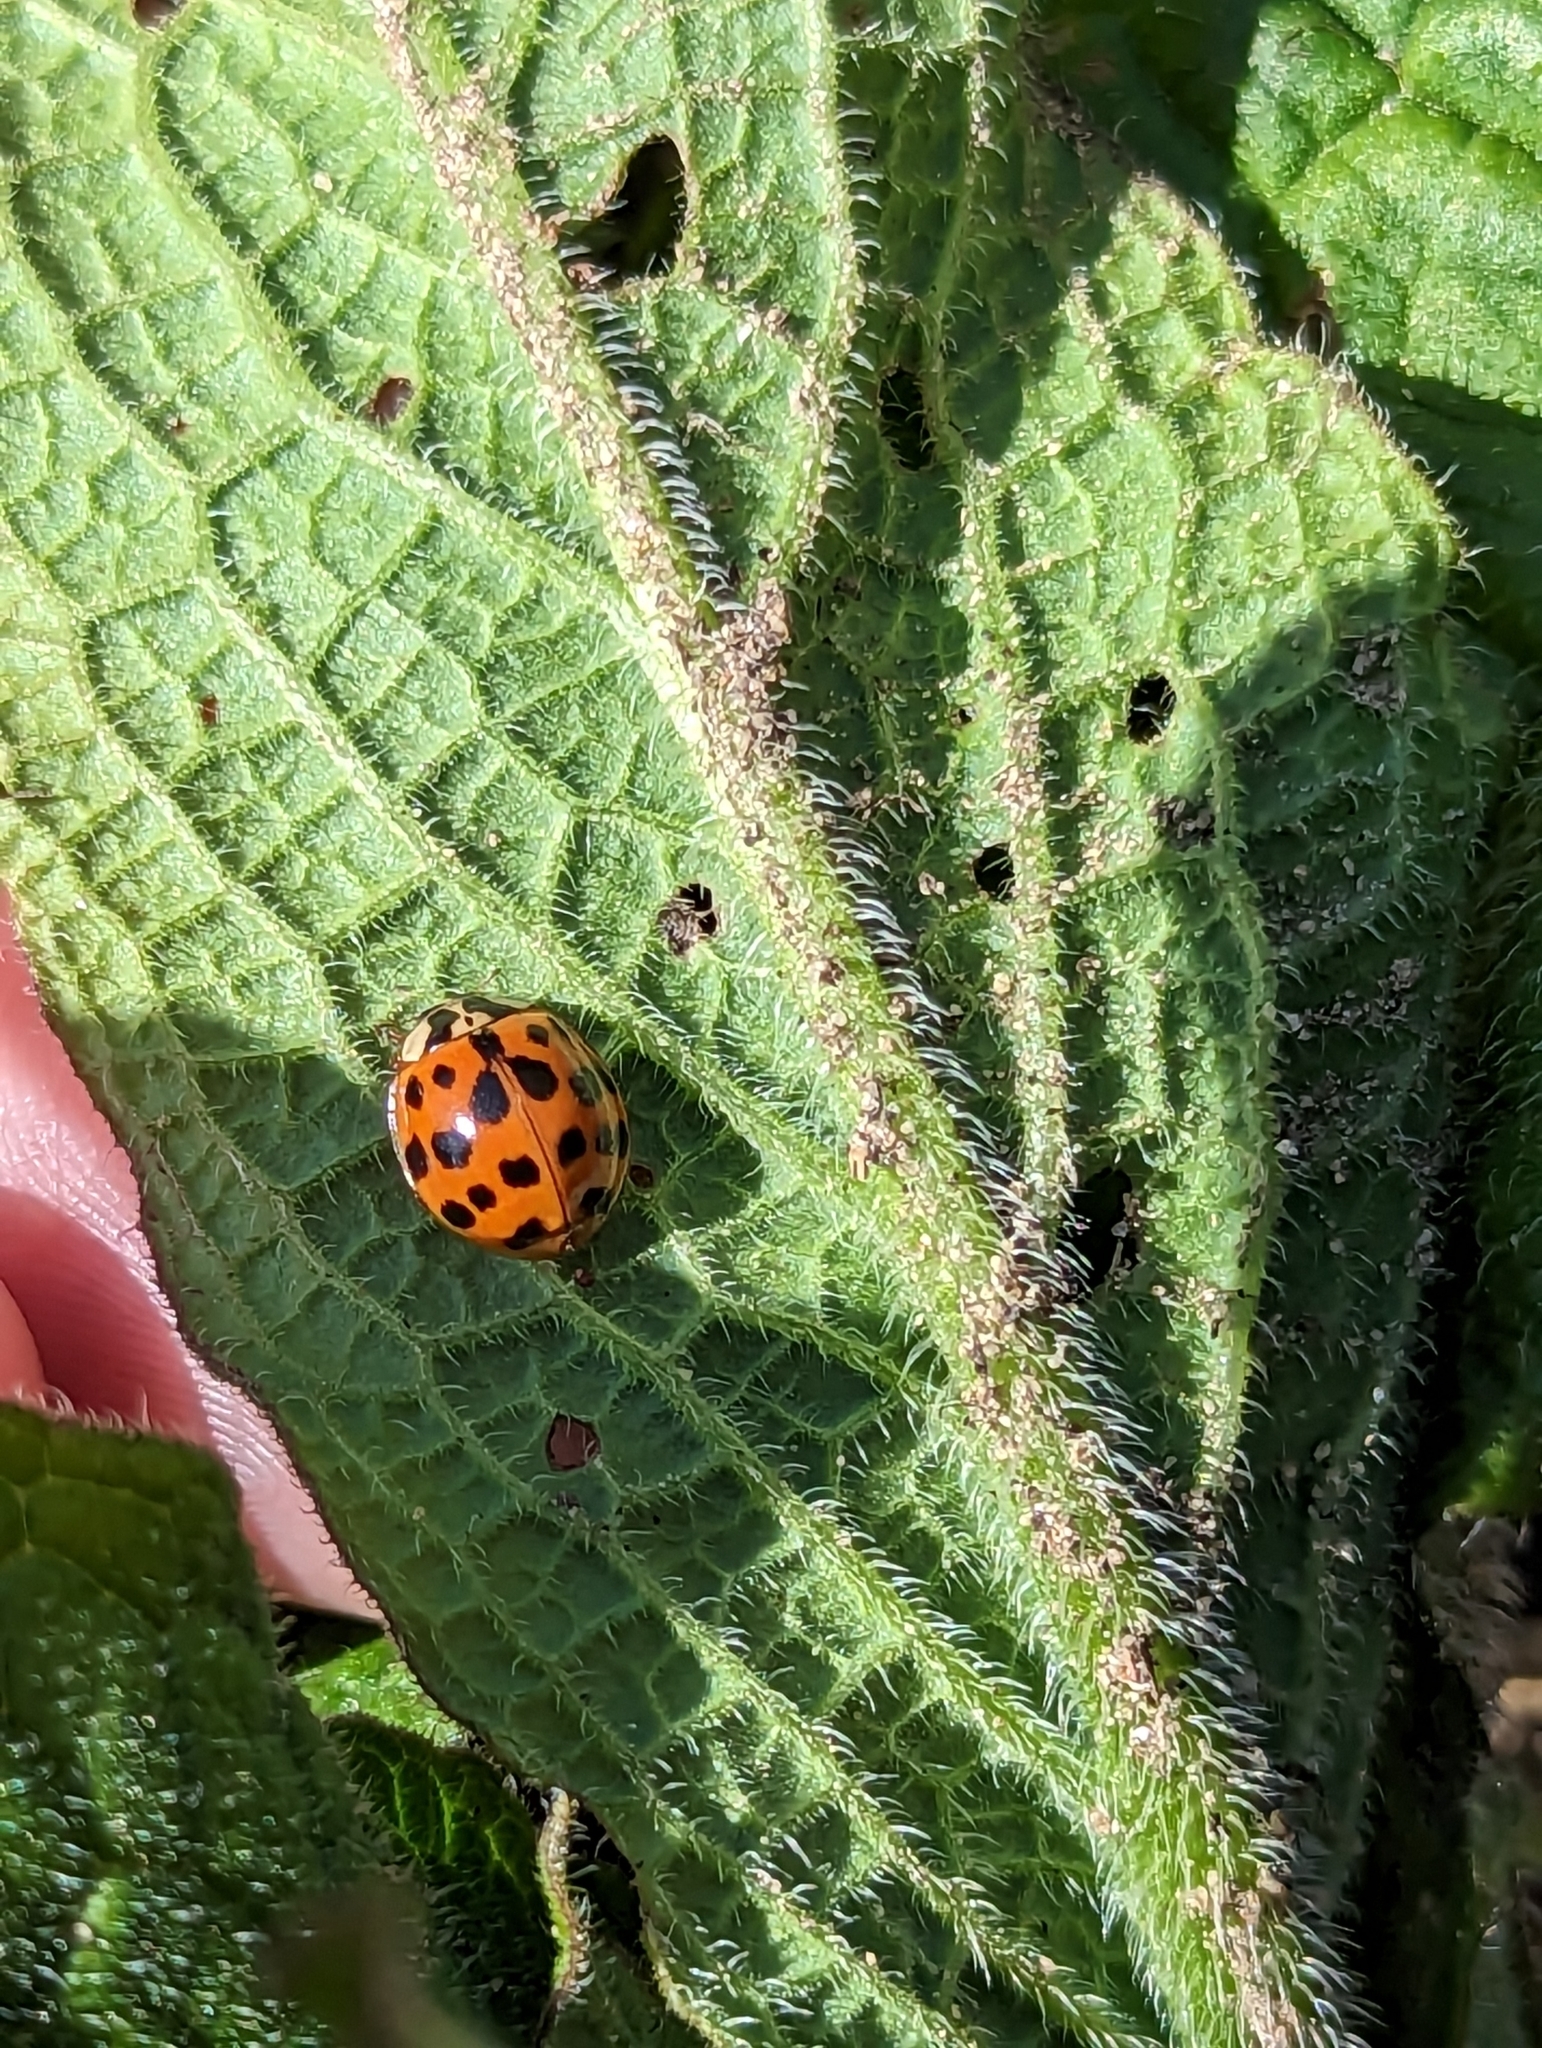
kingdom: Animalia
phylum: Arthropoda
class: Insecta
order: Coleoptera
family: Coccinellidae
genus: Harmonia
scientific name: Harmonia axyridis
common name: Harlequin ladybird
